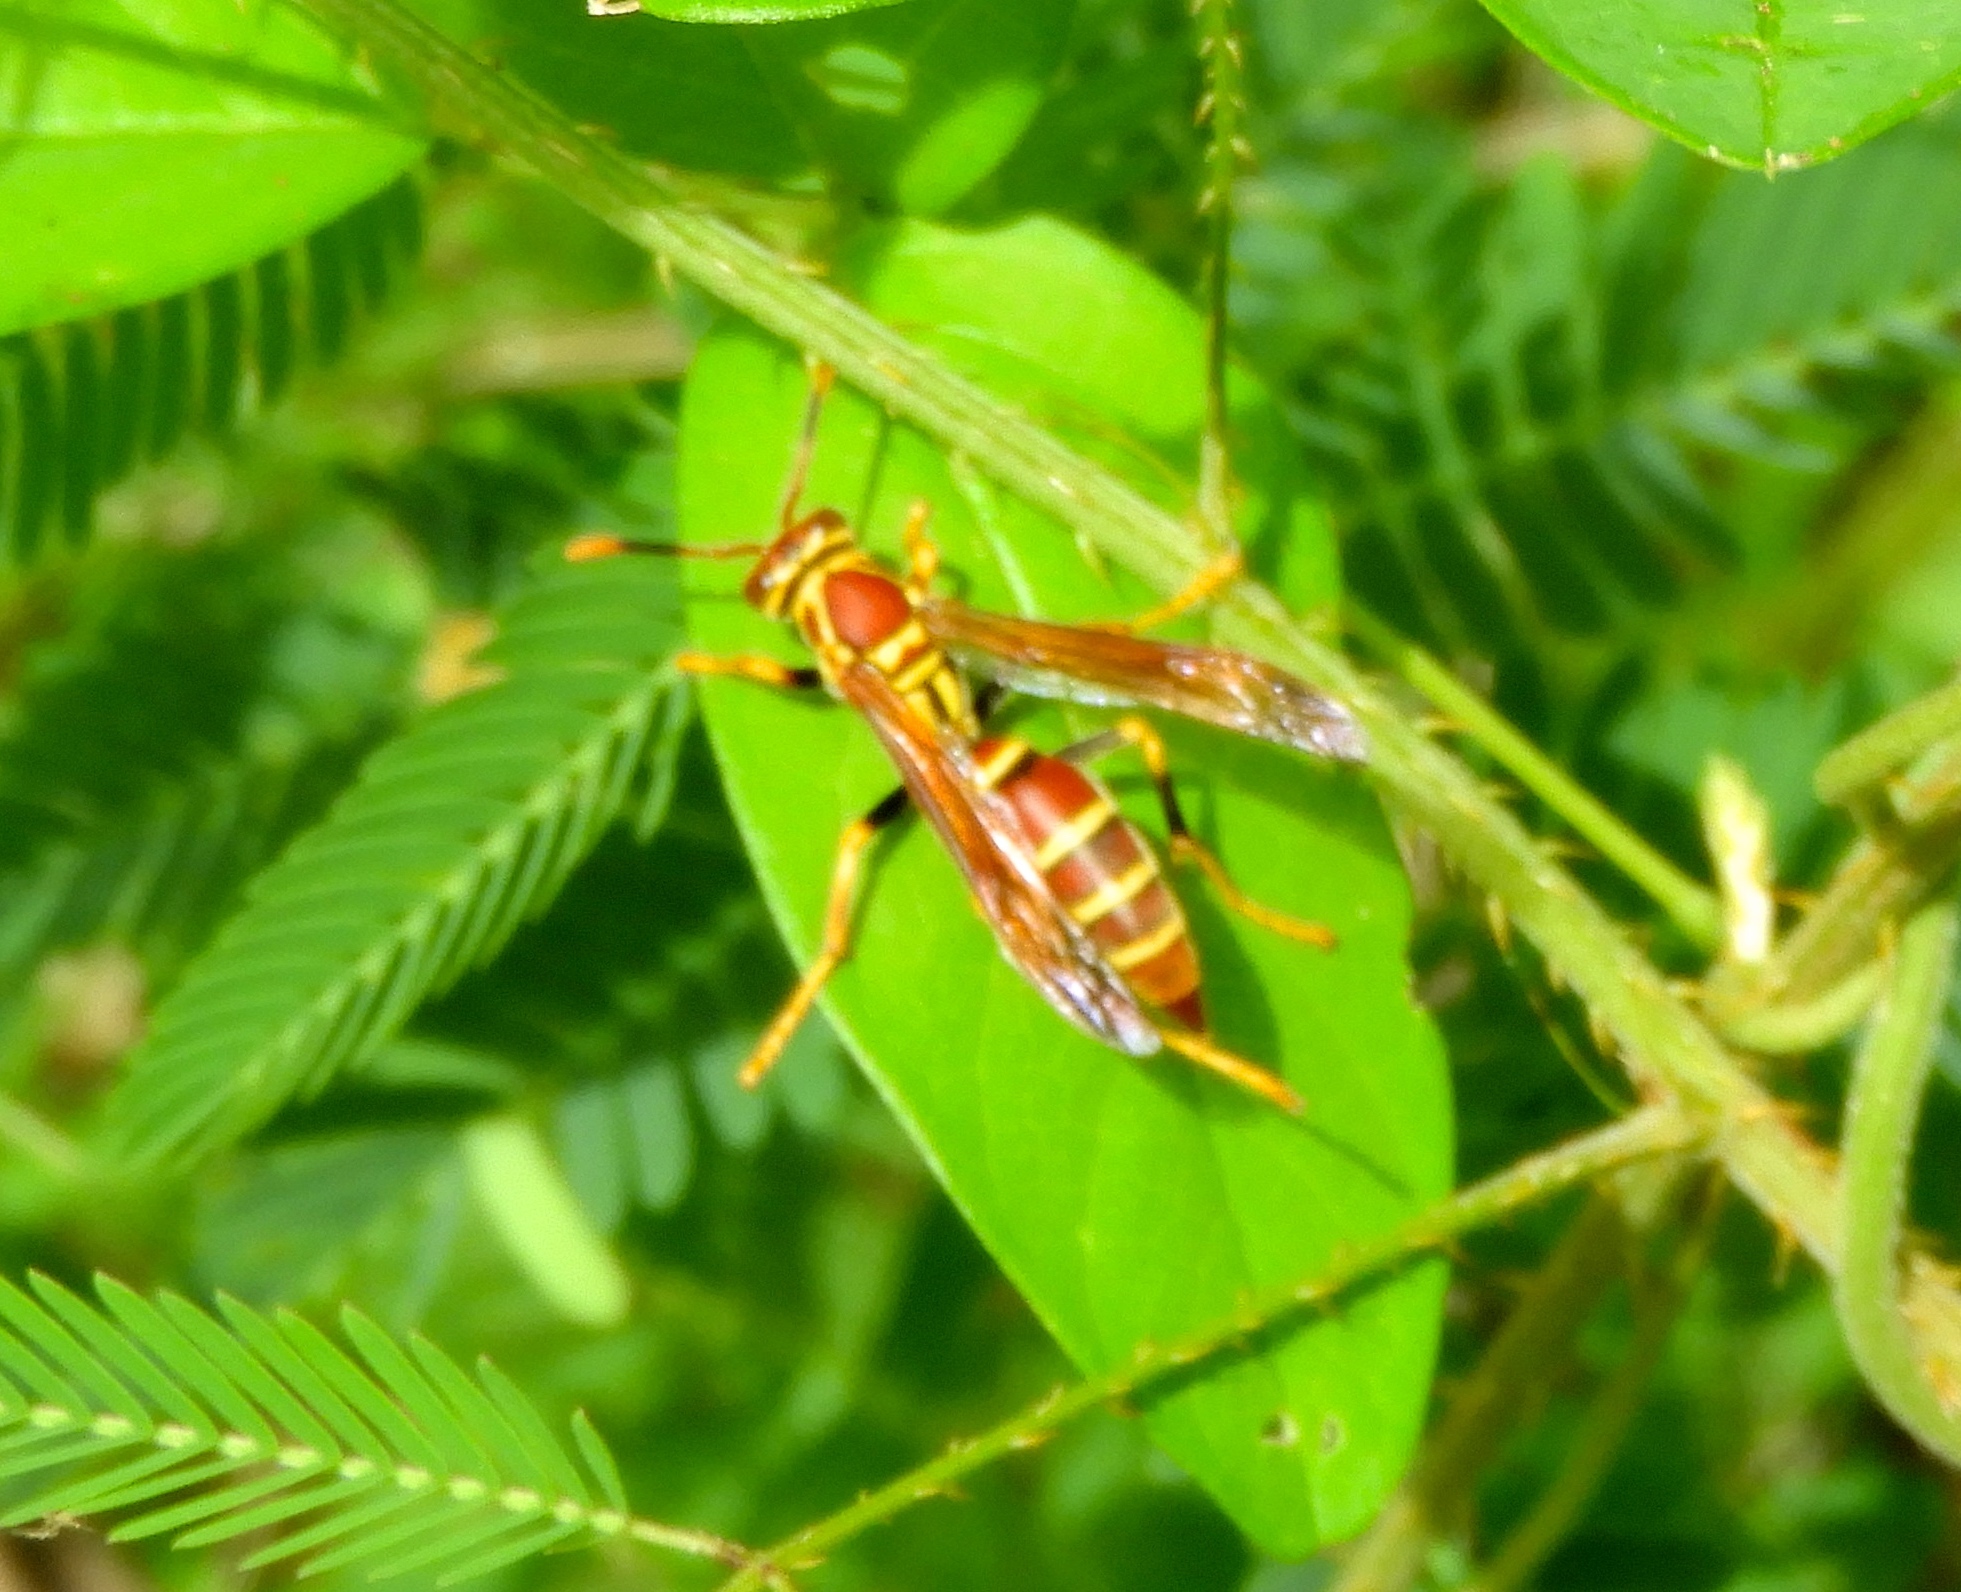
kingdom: Animalia
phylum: Arthropoda
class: Insecta
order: Hymenoptera
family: Eumenidae
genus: Polistes
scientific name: Polistes instabilis
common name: Unstable paper wasp
